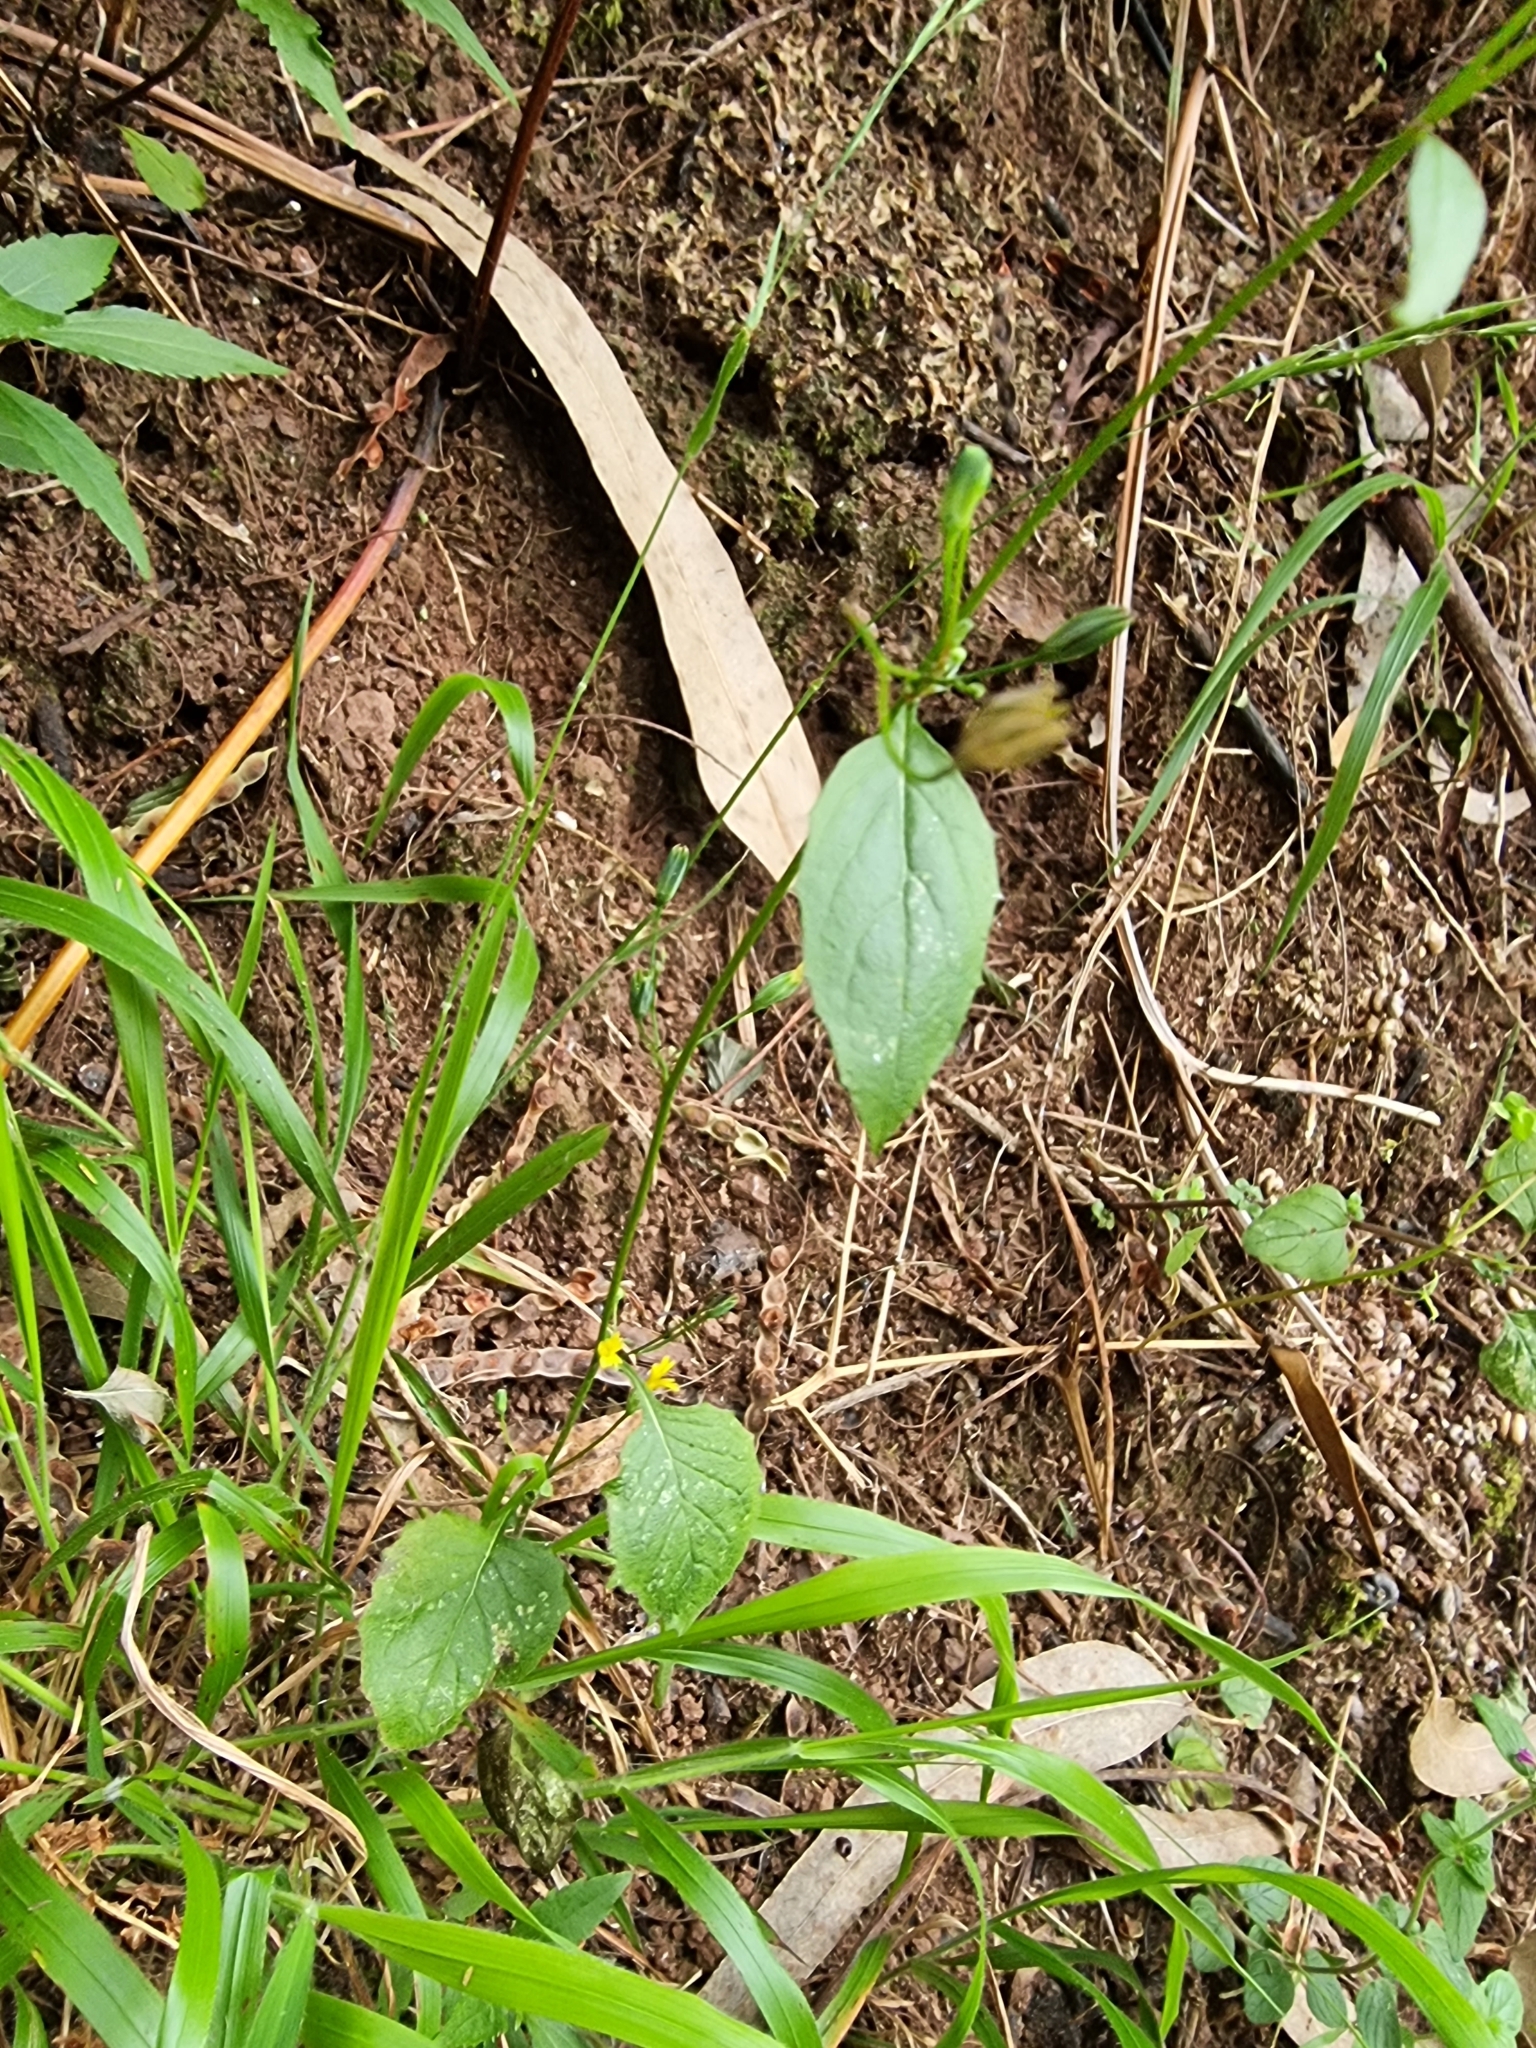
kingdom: Plantae
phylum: Tracheophyta
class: Magnoliopsida
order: Asterales
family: Asteraceae
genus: Lapsana
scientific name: Lapsana communis
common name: Nipplewort
